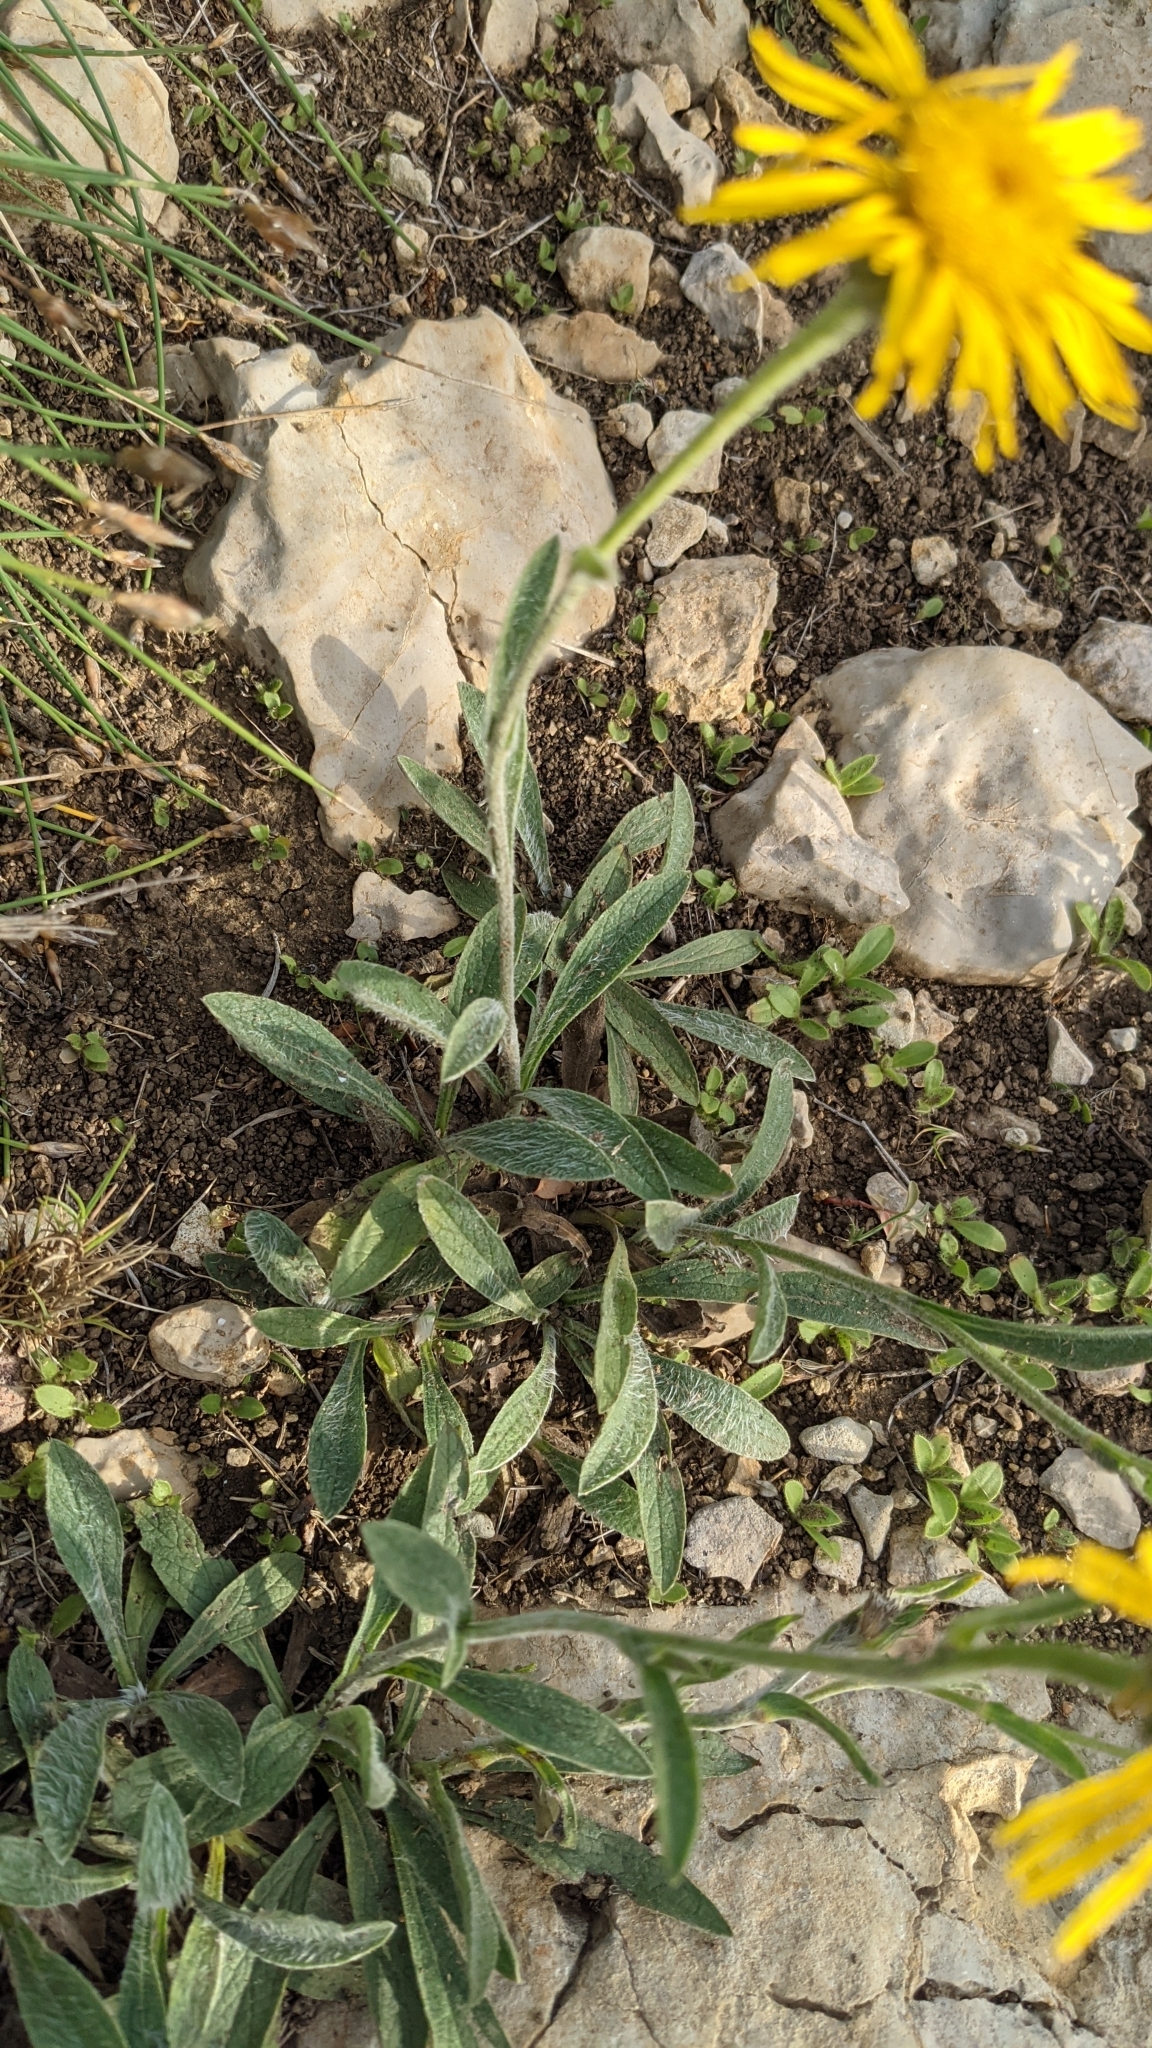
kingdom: Plantae
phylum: Tracheophyta
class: Magnoliopsida
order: Asterales
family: Asteraceae
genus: Pentanema
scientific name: Pentanema montanum
